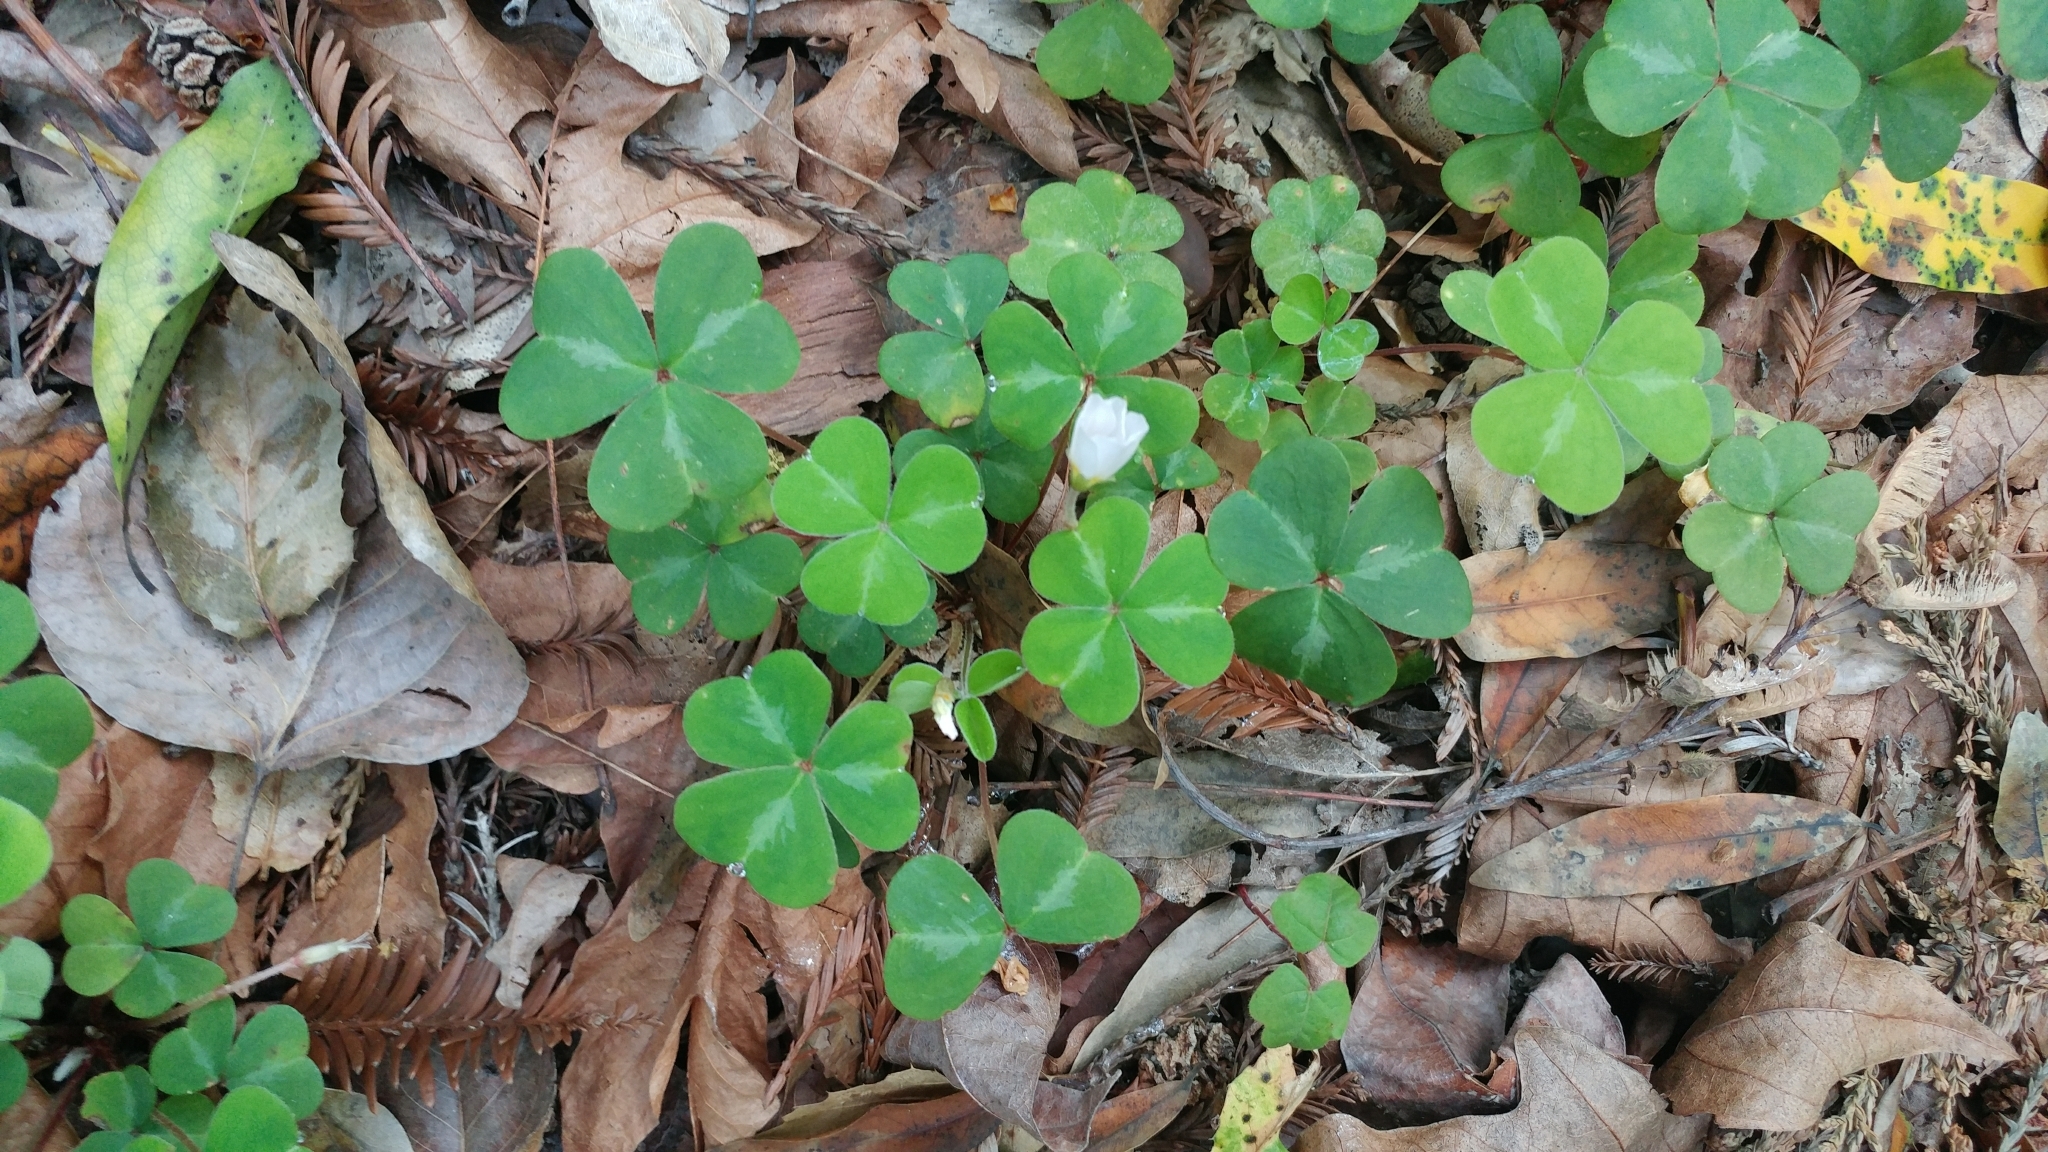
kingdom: Plantae
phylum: Tracheophyta
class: Magnoliopsida
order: Oxalidales
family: Oxalidaceae
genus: Oxalis
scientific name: Oxalis oregana
